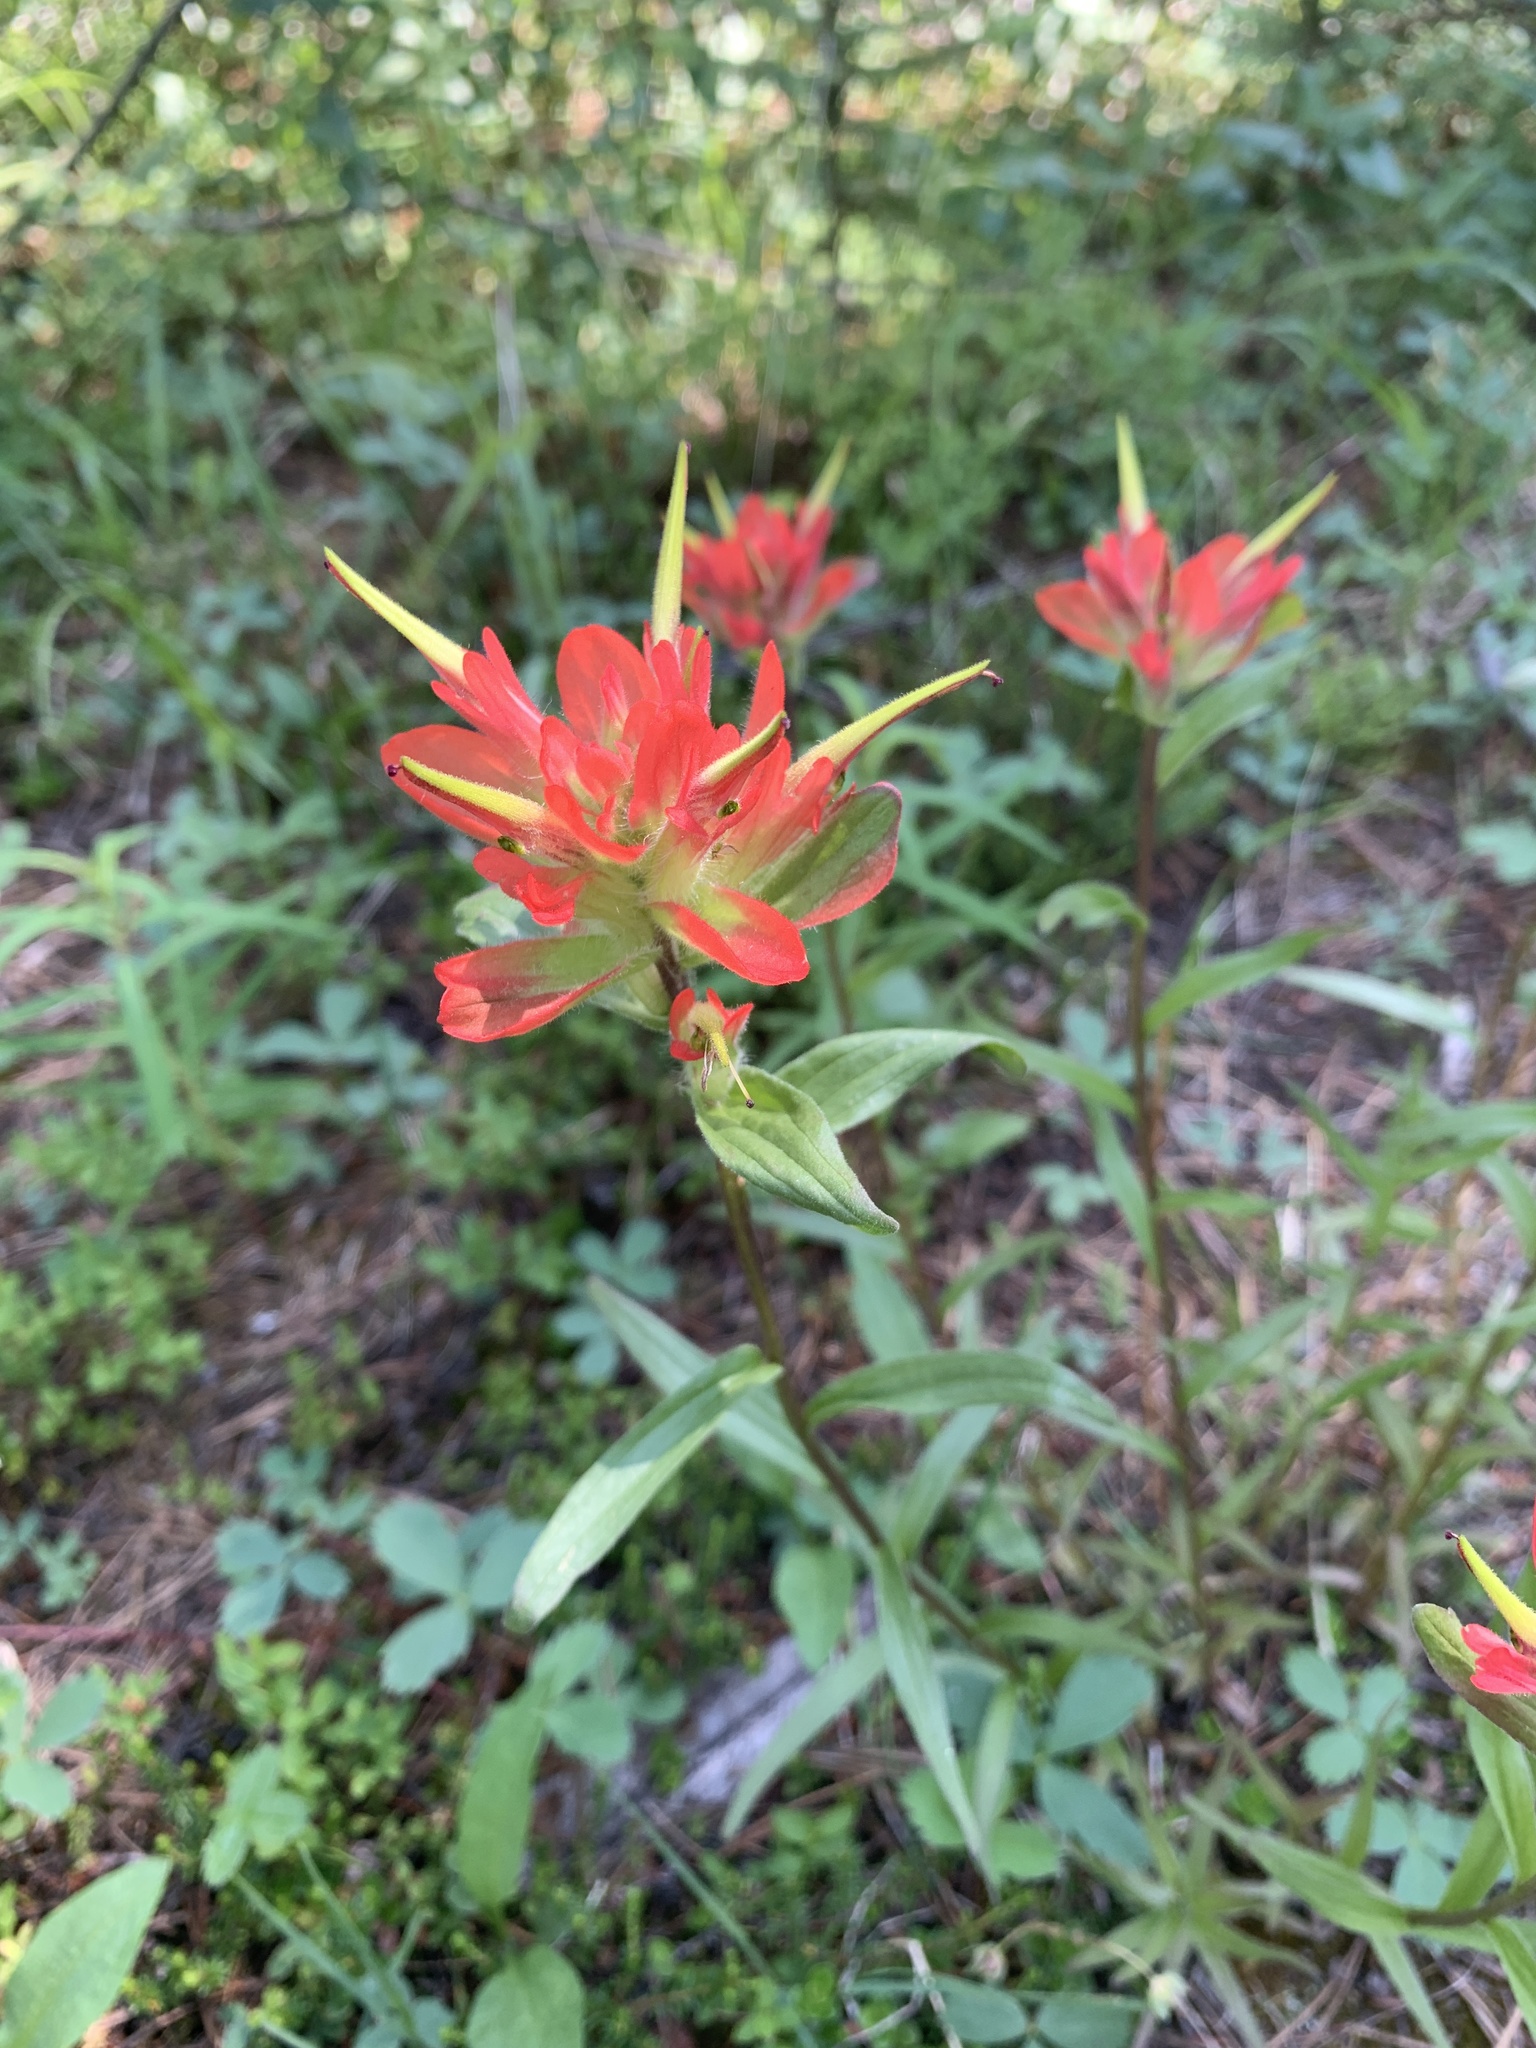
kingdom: Plantae
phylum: Tracheophyta
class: Magnoliopsida
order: Lamiales
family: Orobanchaceae
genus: Castilleja
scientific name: Castilleja miniata
